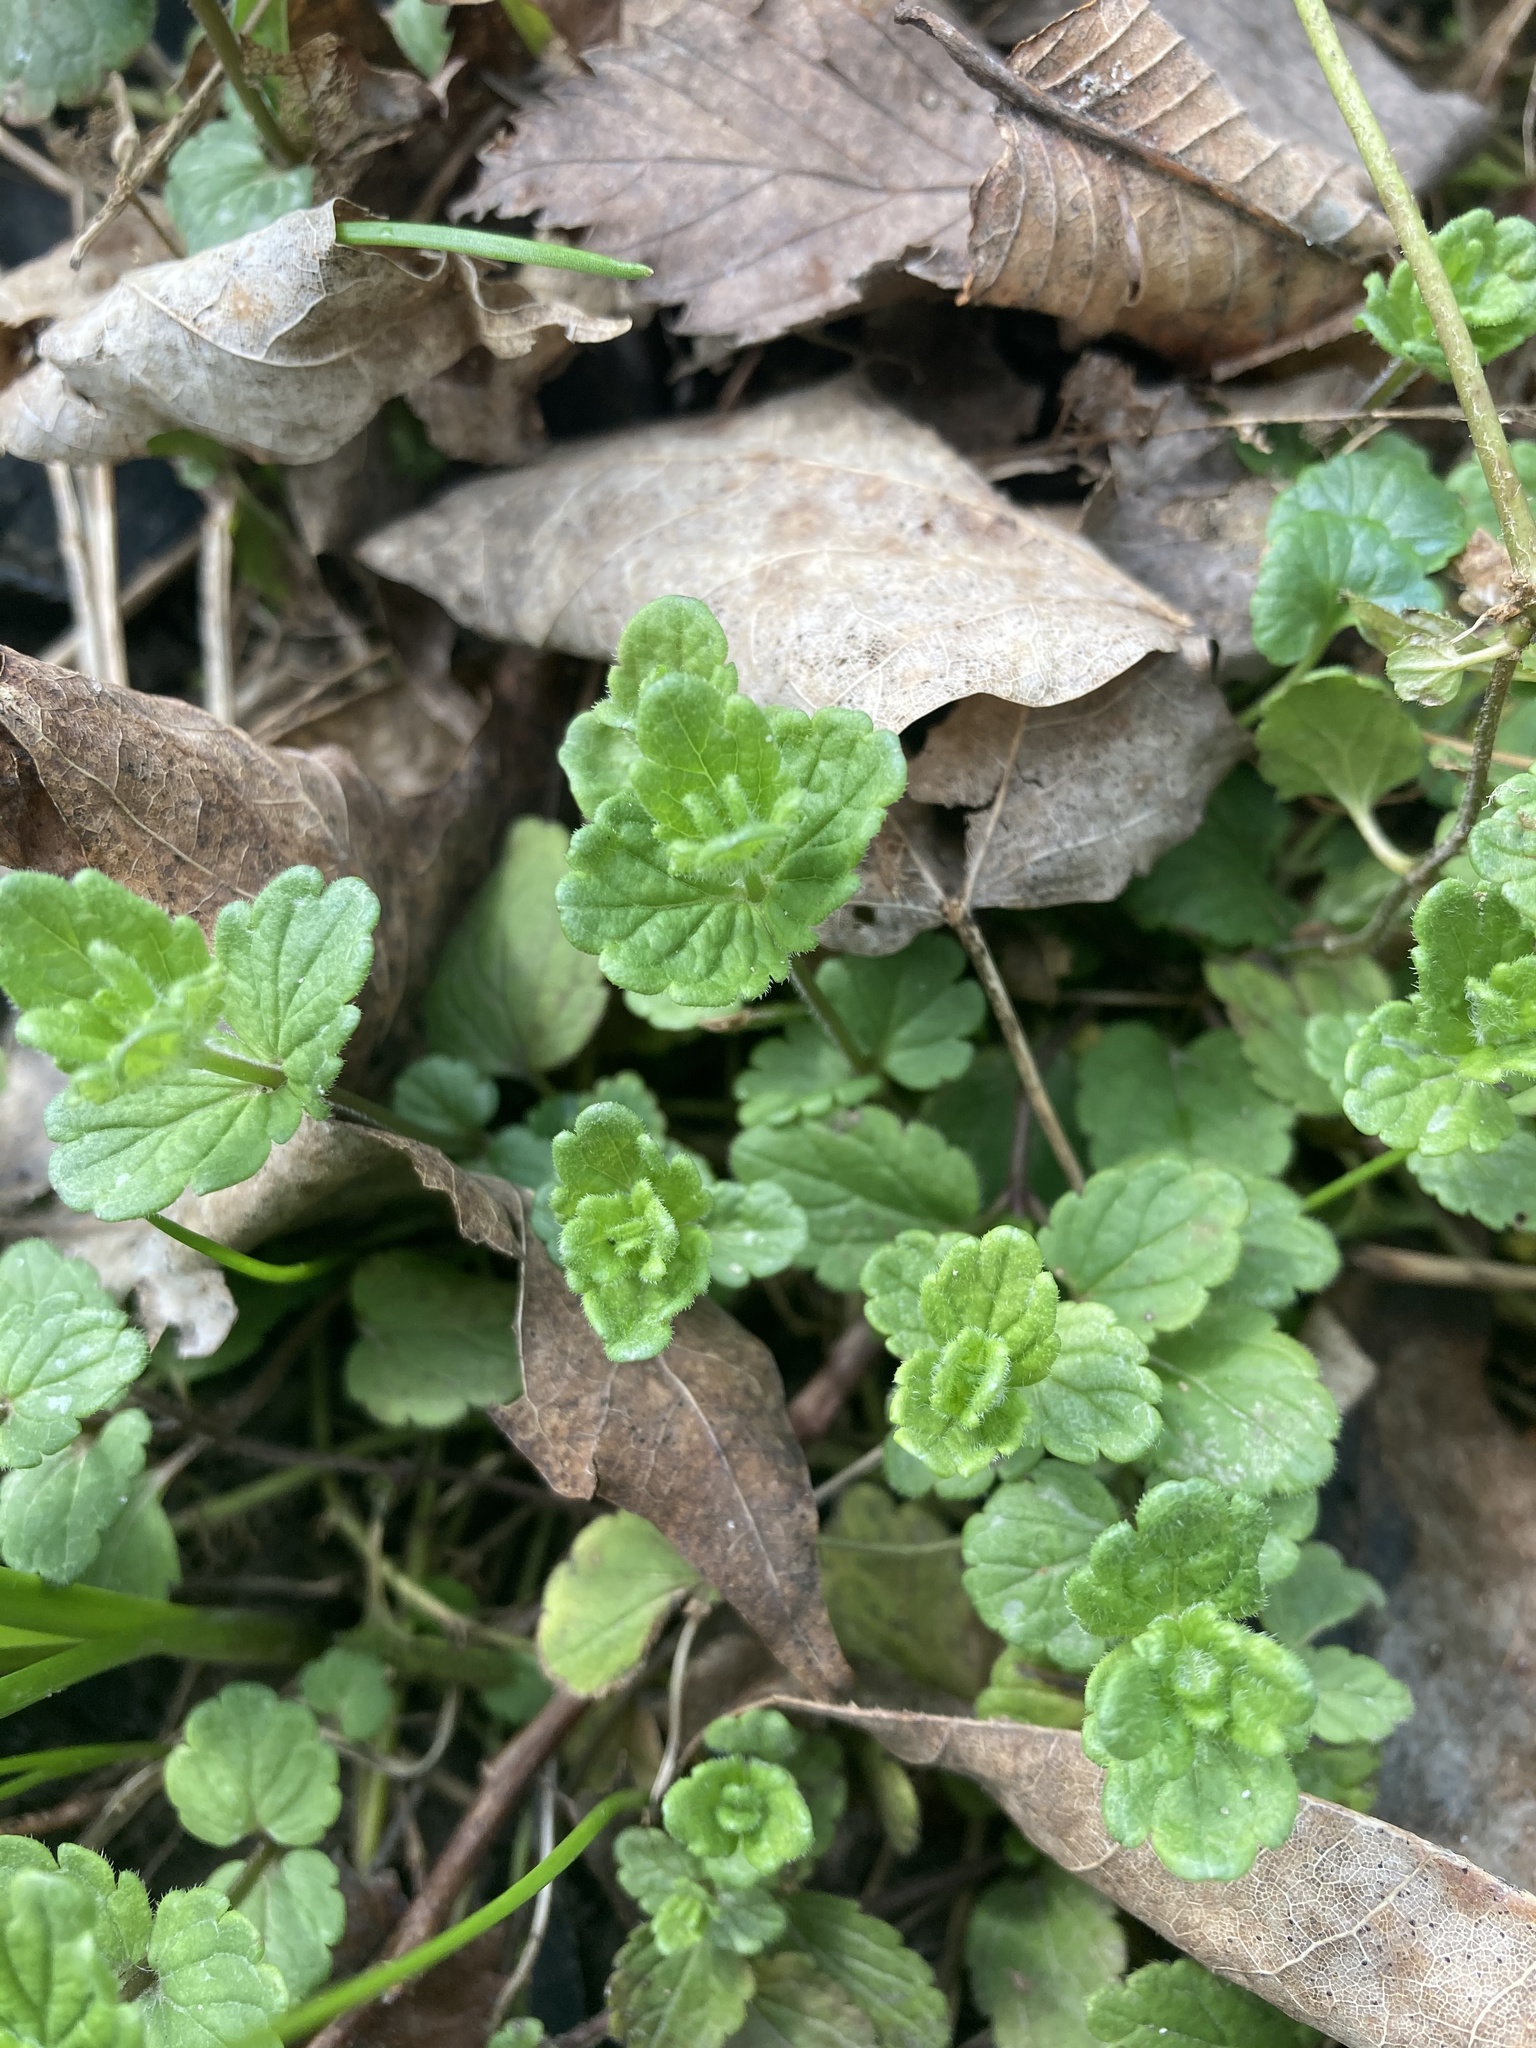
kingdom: Plantae
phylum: Tracheophyta
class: Magnoliopsida
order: Lamiales
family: Plantaginaceae
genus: Veronica
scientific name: Veronica chamaedrys
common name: Germander speedwell
